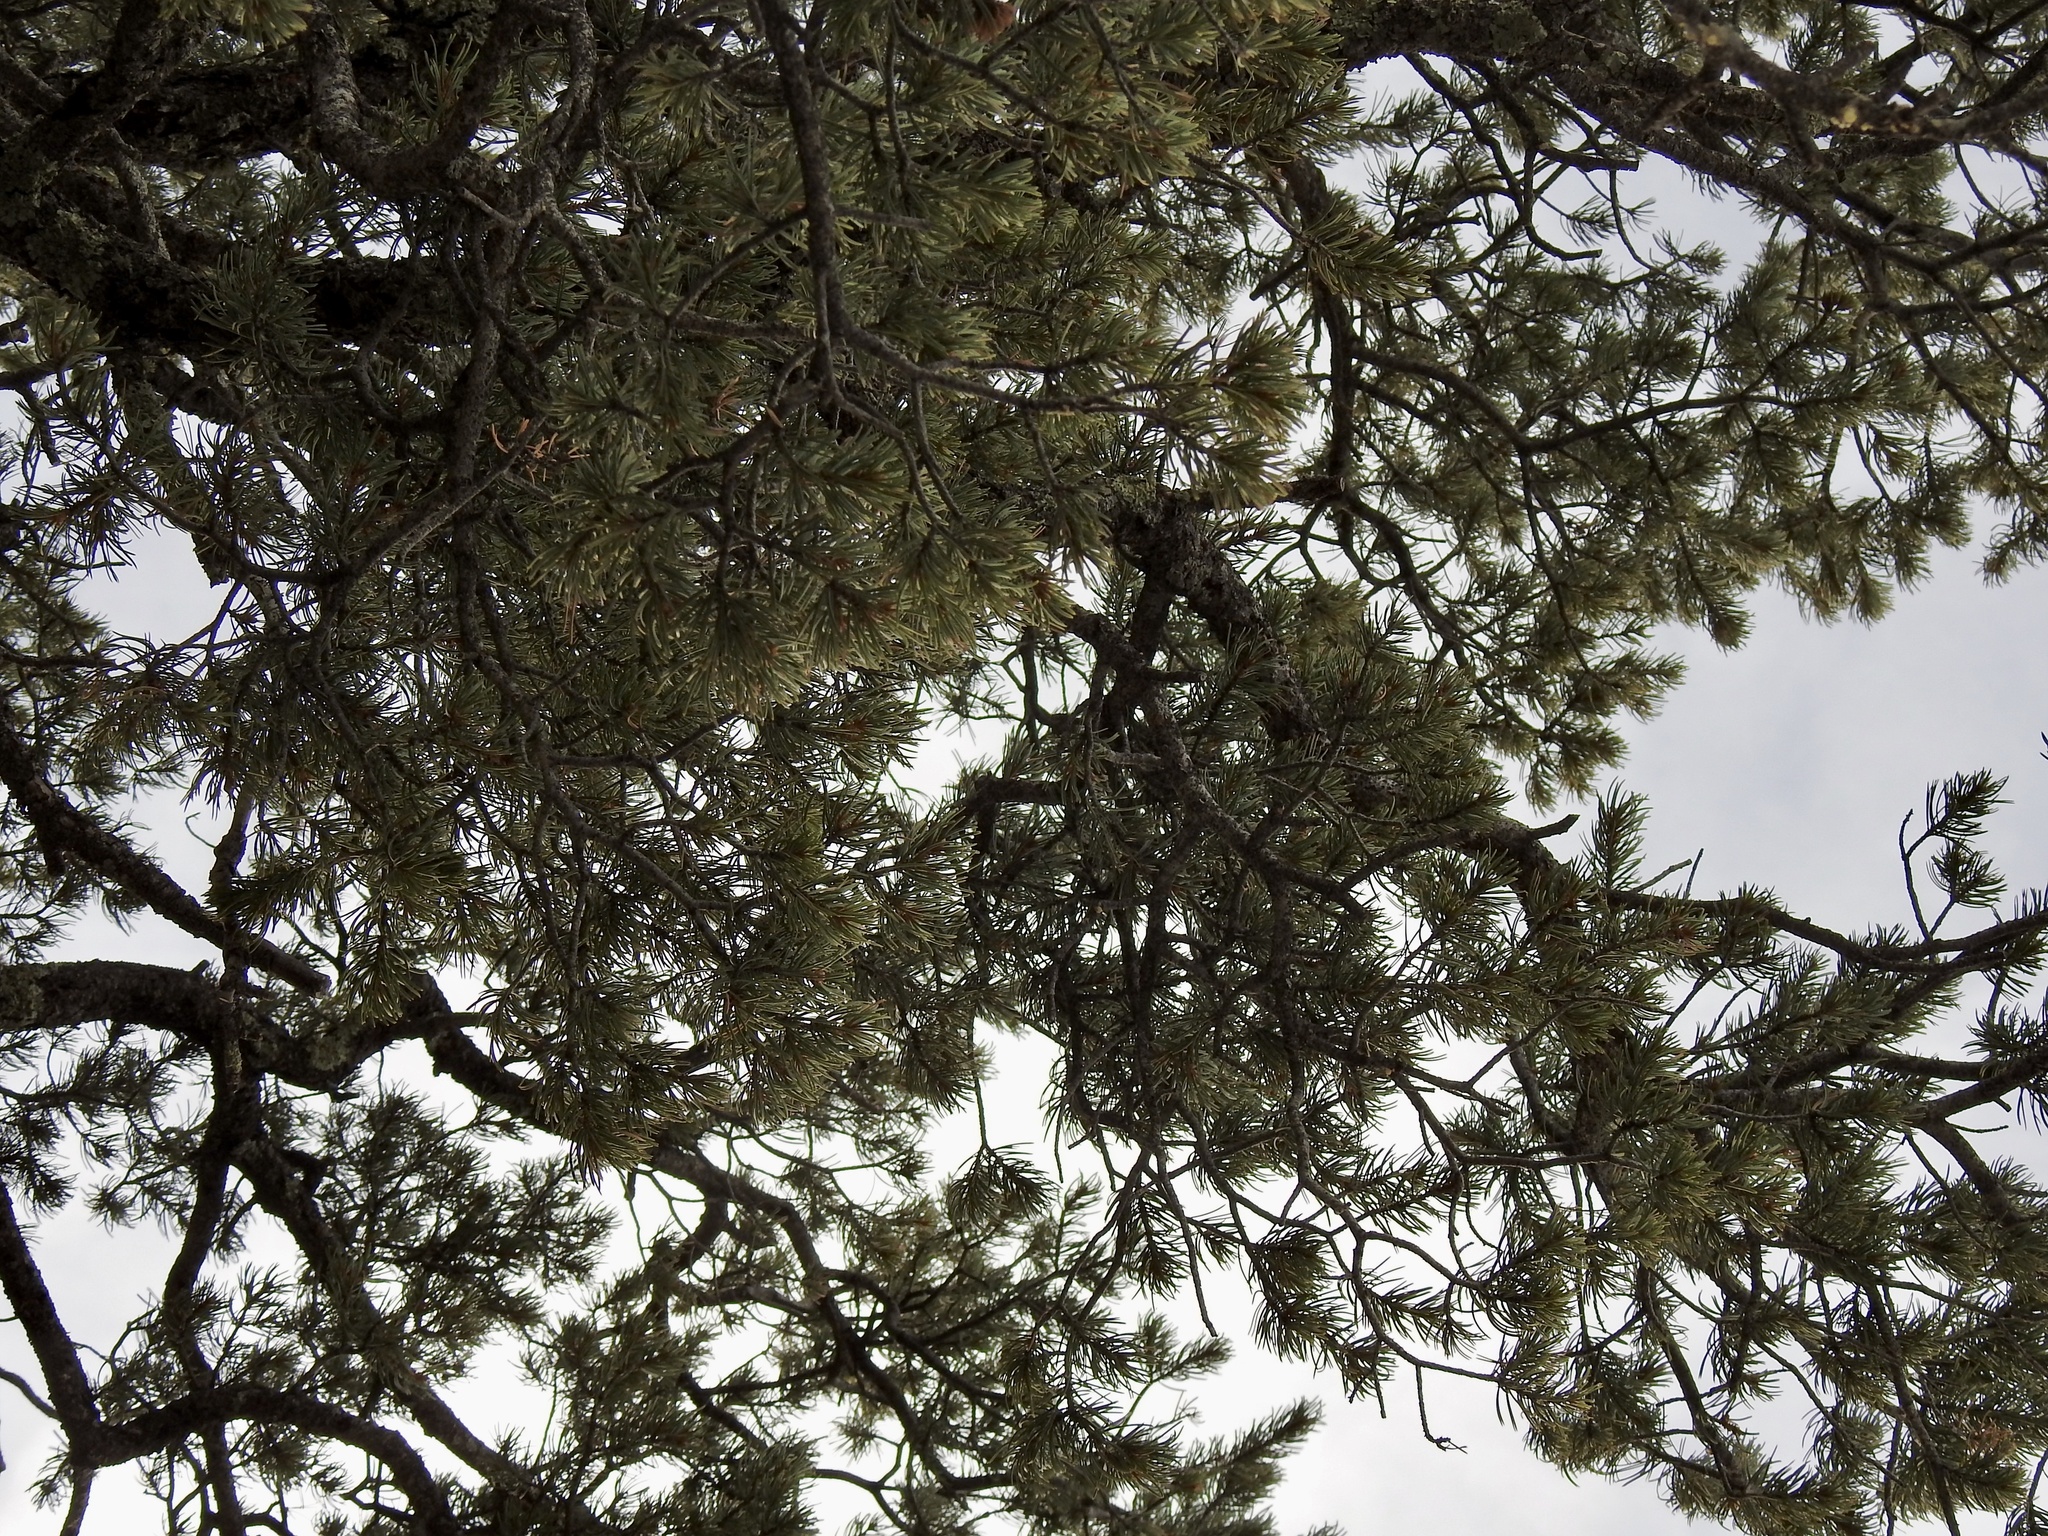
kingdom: Plantae
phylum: Tracheophyta
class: Pinopsida
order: Pinales
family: Pinaceae
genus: Pinus
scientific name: Pinus edulis
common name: Colorado pinyon
